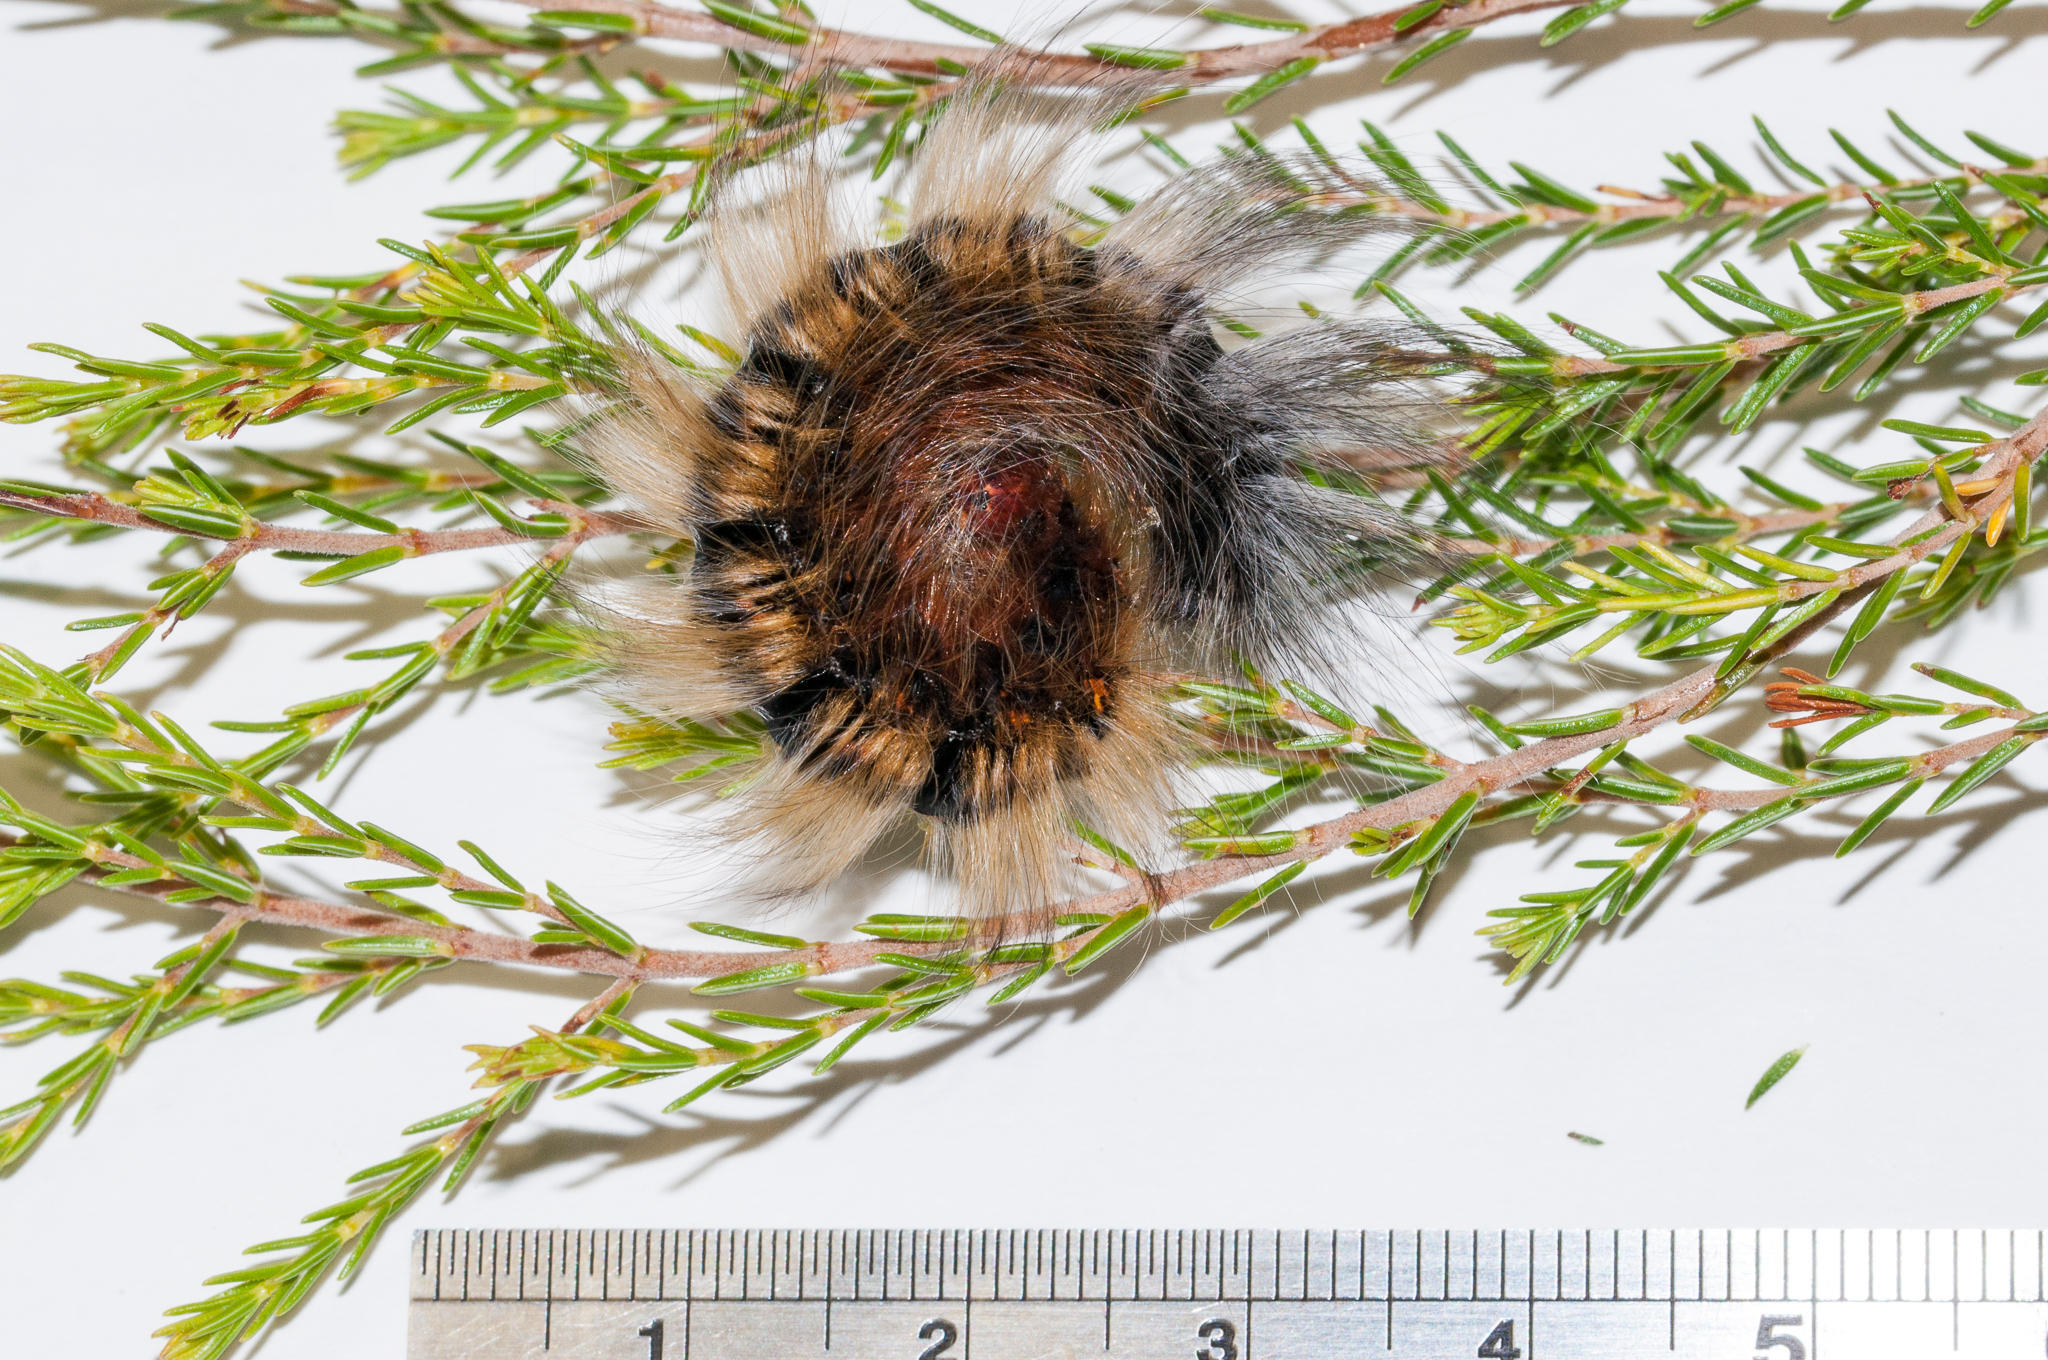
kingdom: Animalia
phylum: Arthropoda
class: Insecta
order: Lepidoptera
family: Lasiocampidae
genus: Mesocelis
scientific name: Mesocelis monticola
